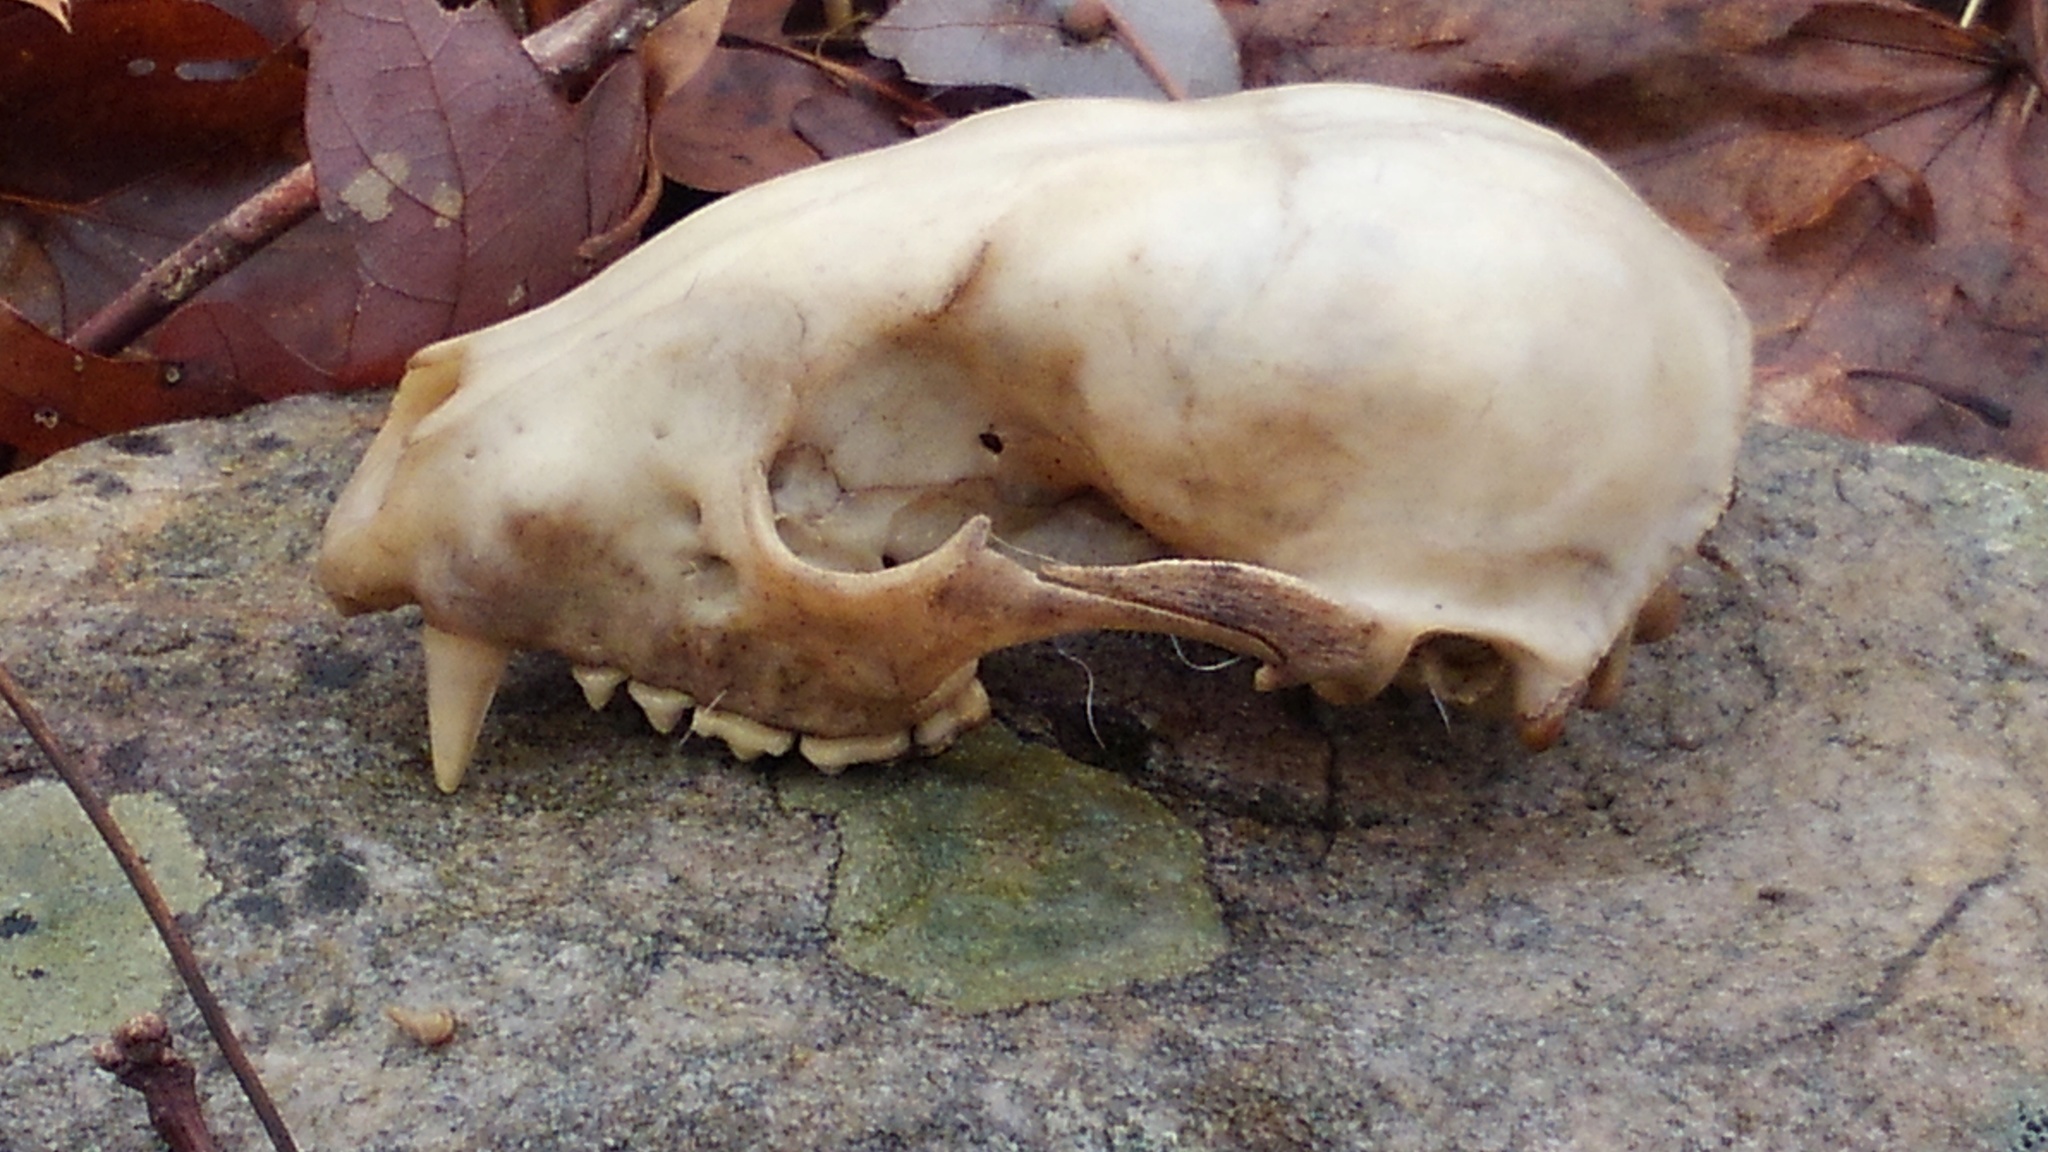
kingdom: Animalia
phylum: Chordata
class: Mammalia
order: Carnivora
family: Procyonidae
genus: Procyon
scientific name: Procyon lotor
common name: Raccoon
